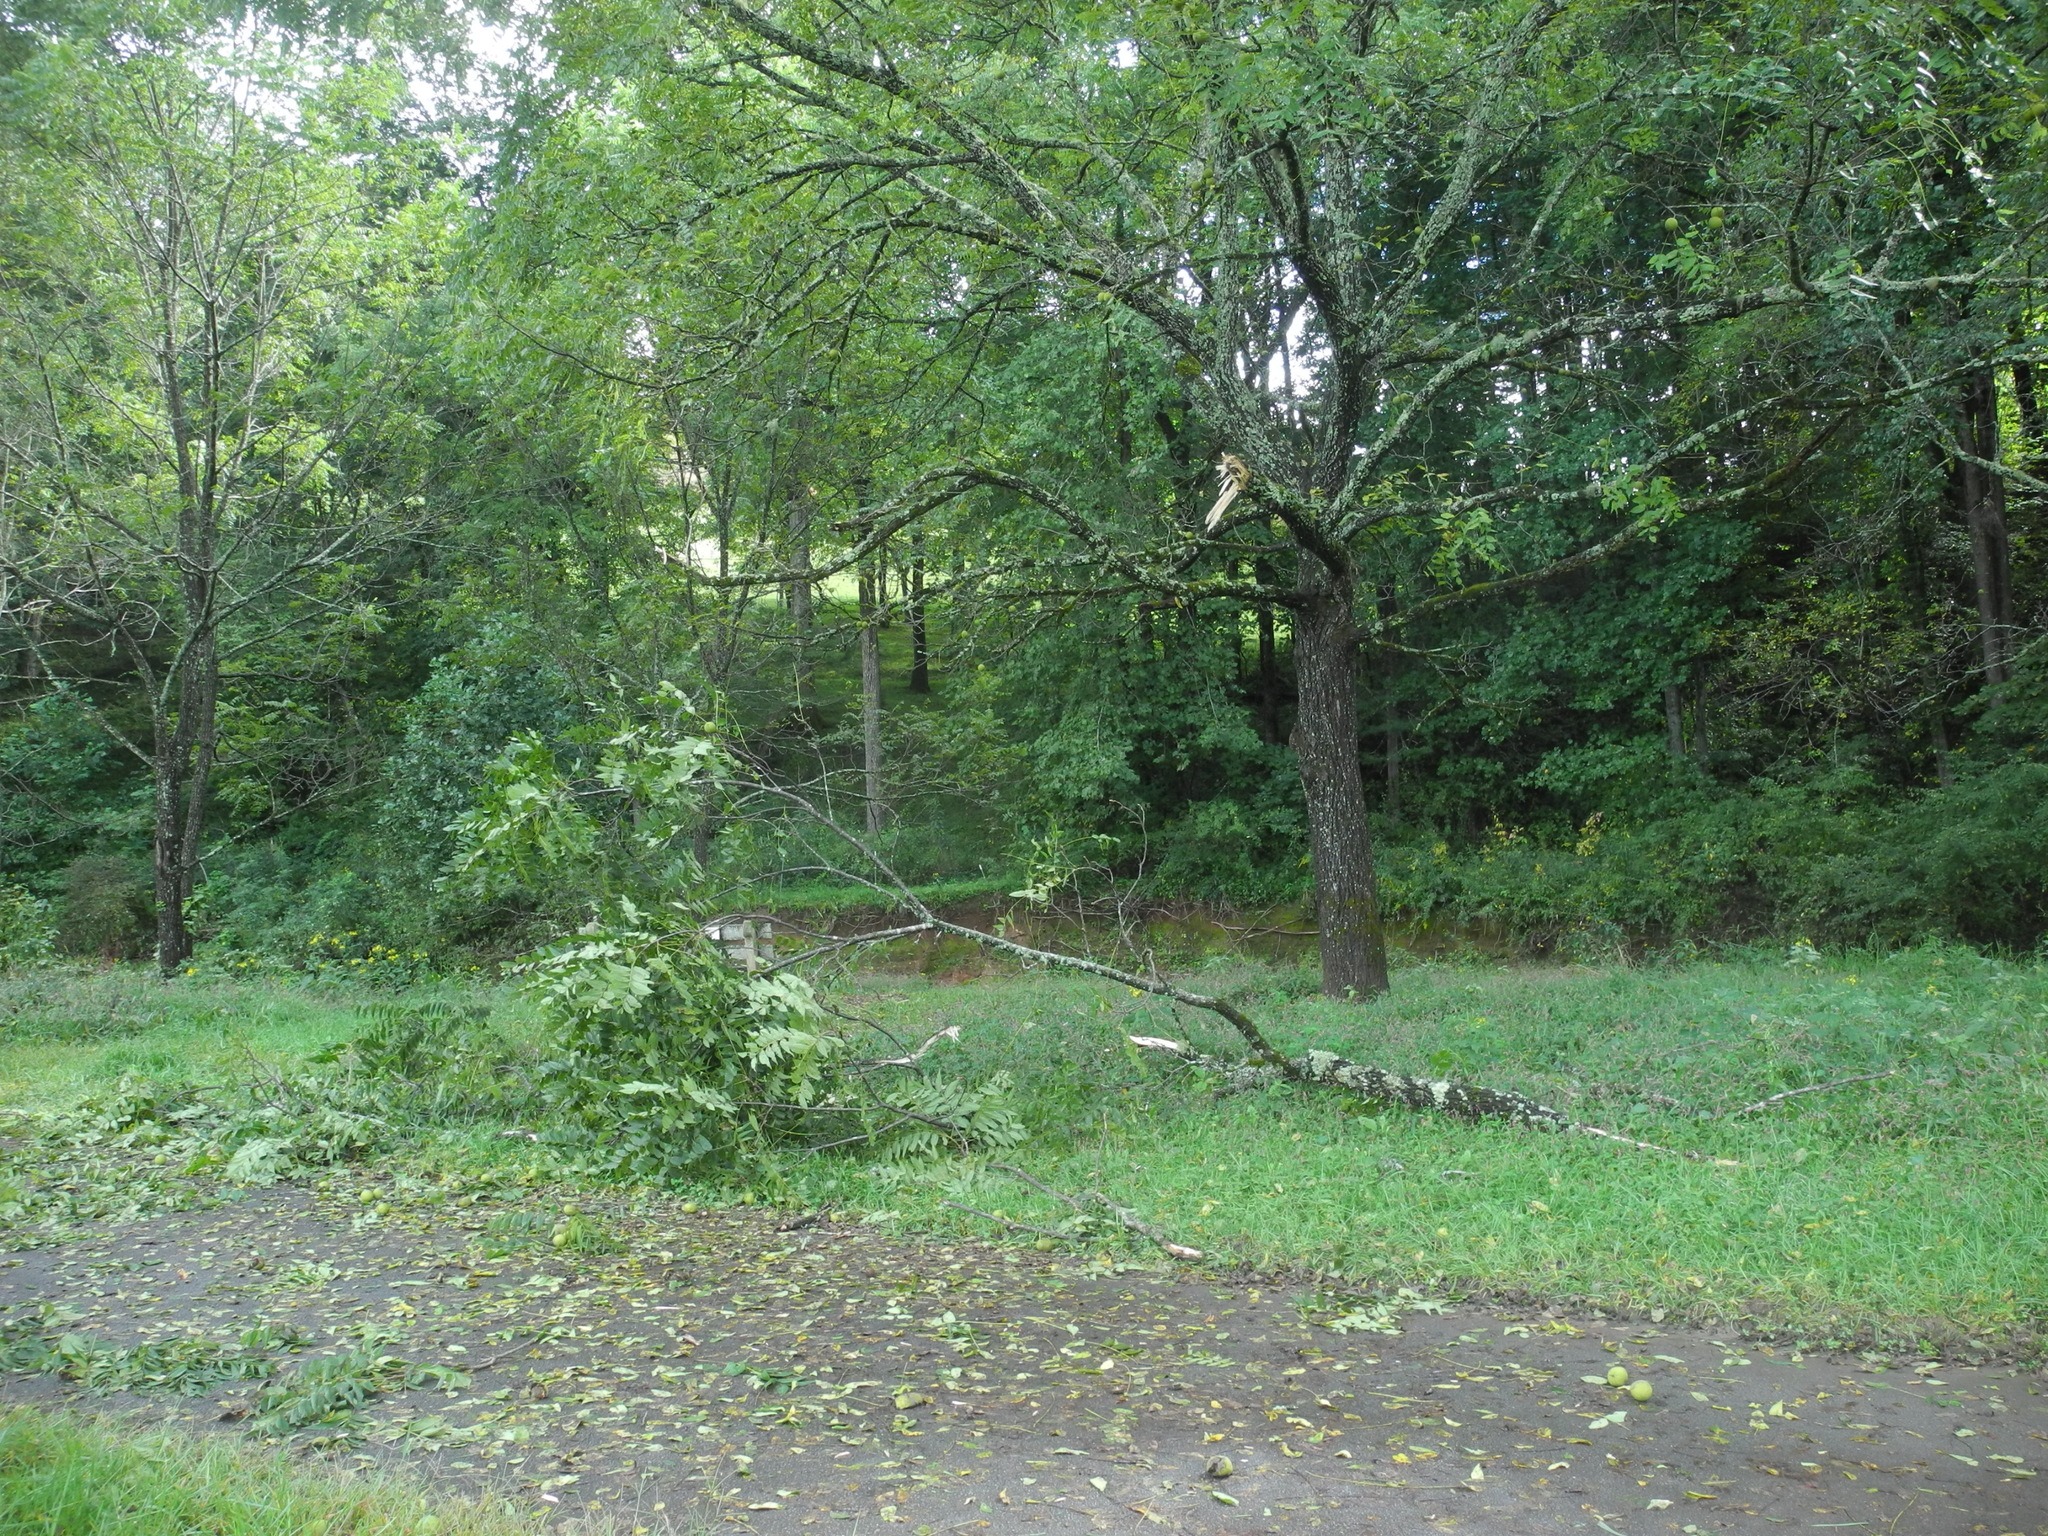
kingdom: Plantae
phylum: Tracheophyta
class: Magnoliopsida
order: Fagales
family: Juglandaceae
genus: Juglans
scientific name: Juglans nigra
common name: Black walnut
